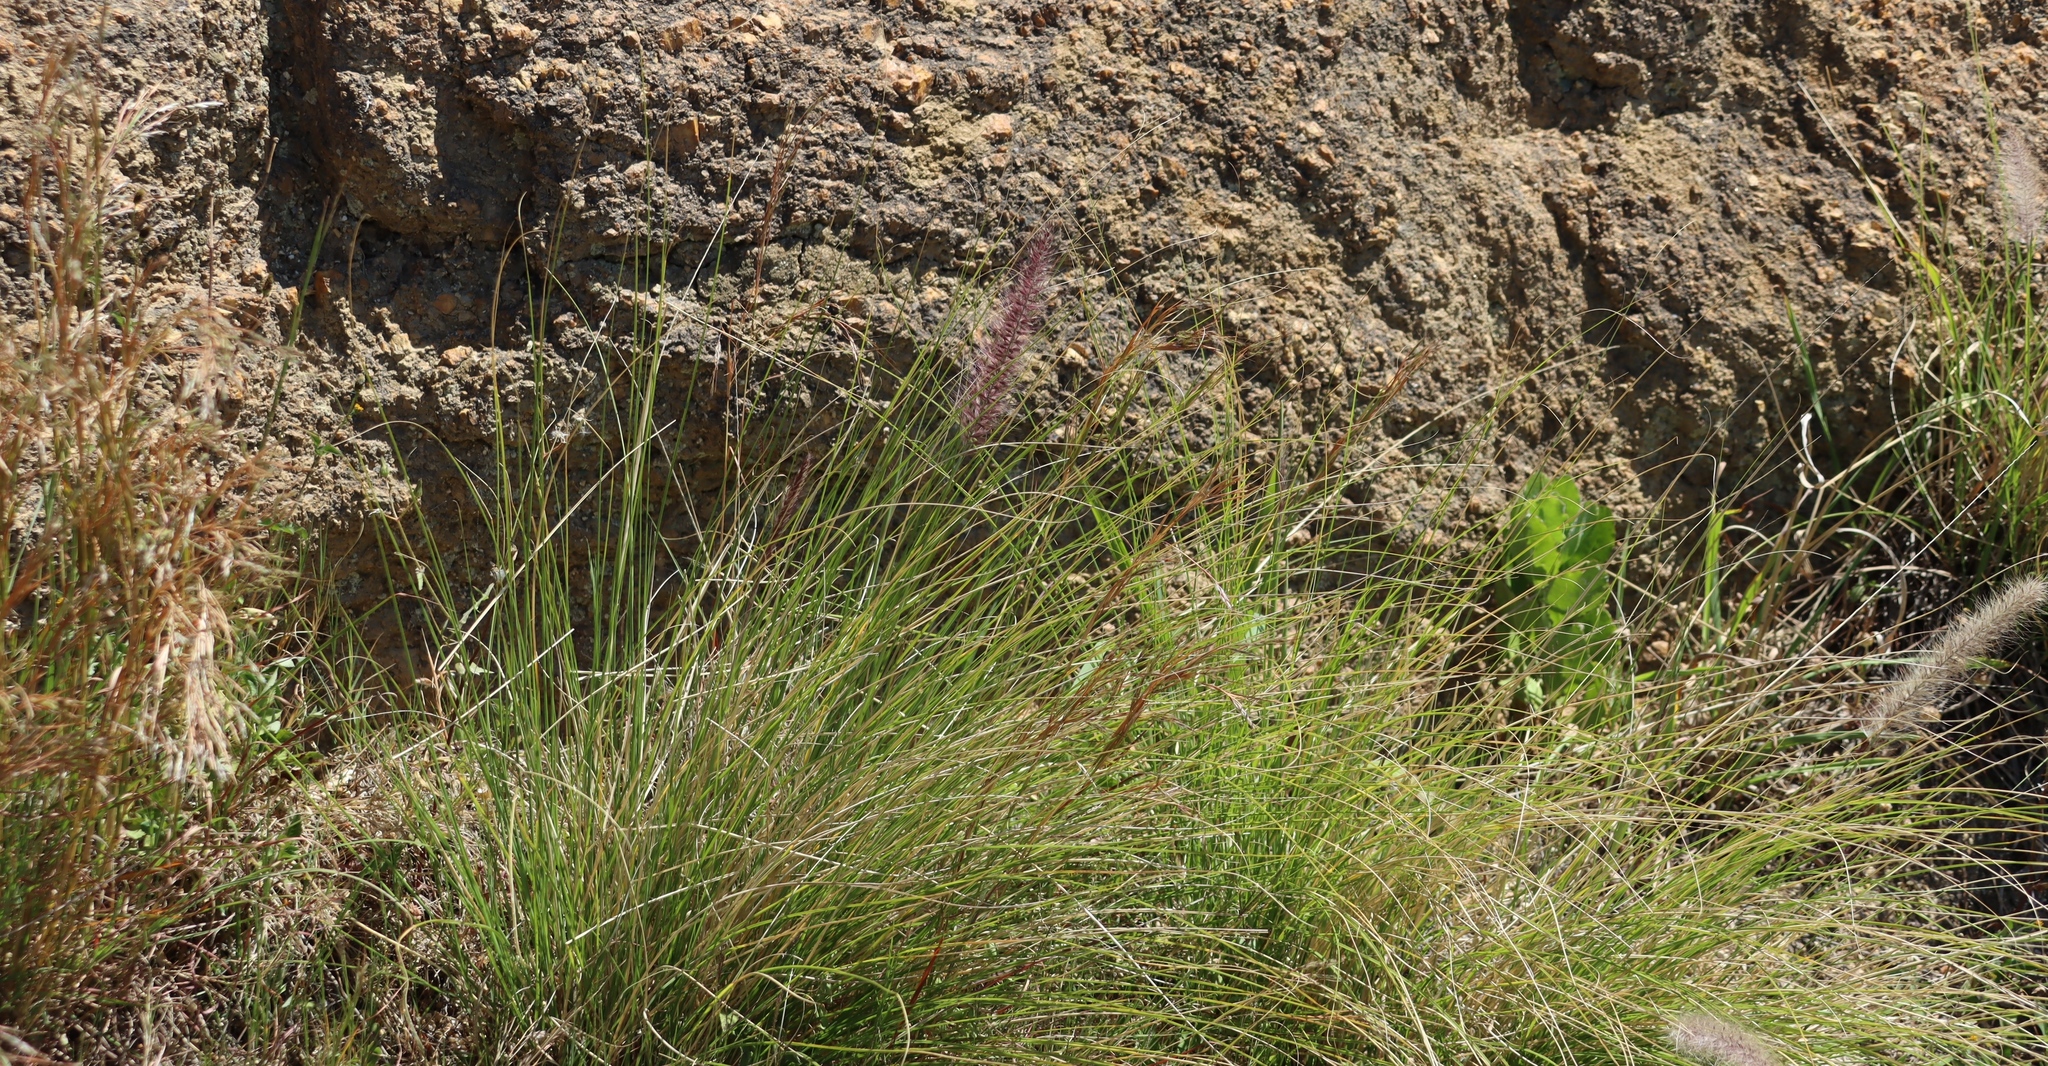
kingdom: Plantae
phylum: Tracheophyta
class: Liliopsida
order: Poales
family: Poaceae
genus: Cenchrus
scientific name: Cenchrus setaceus
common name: Crimson fountaingrass
